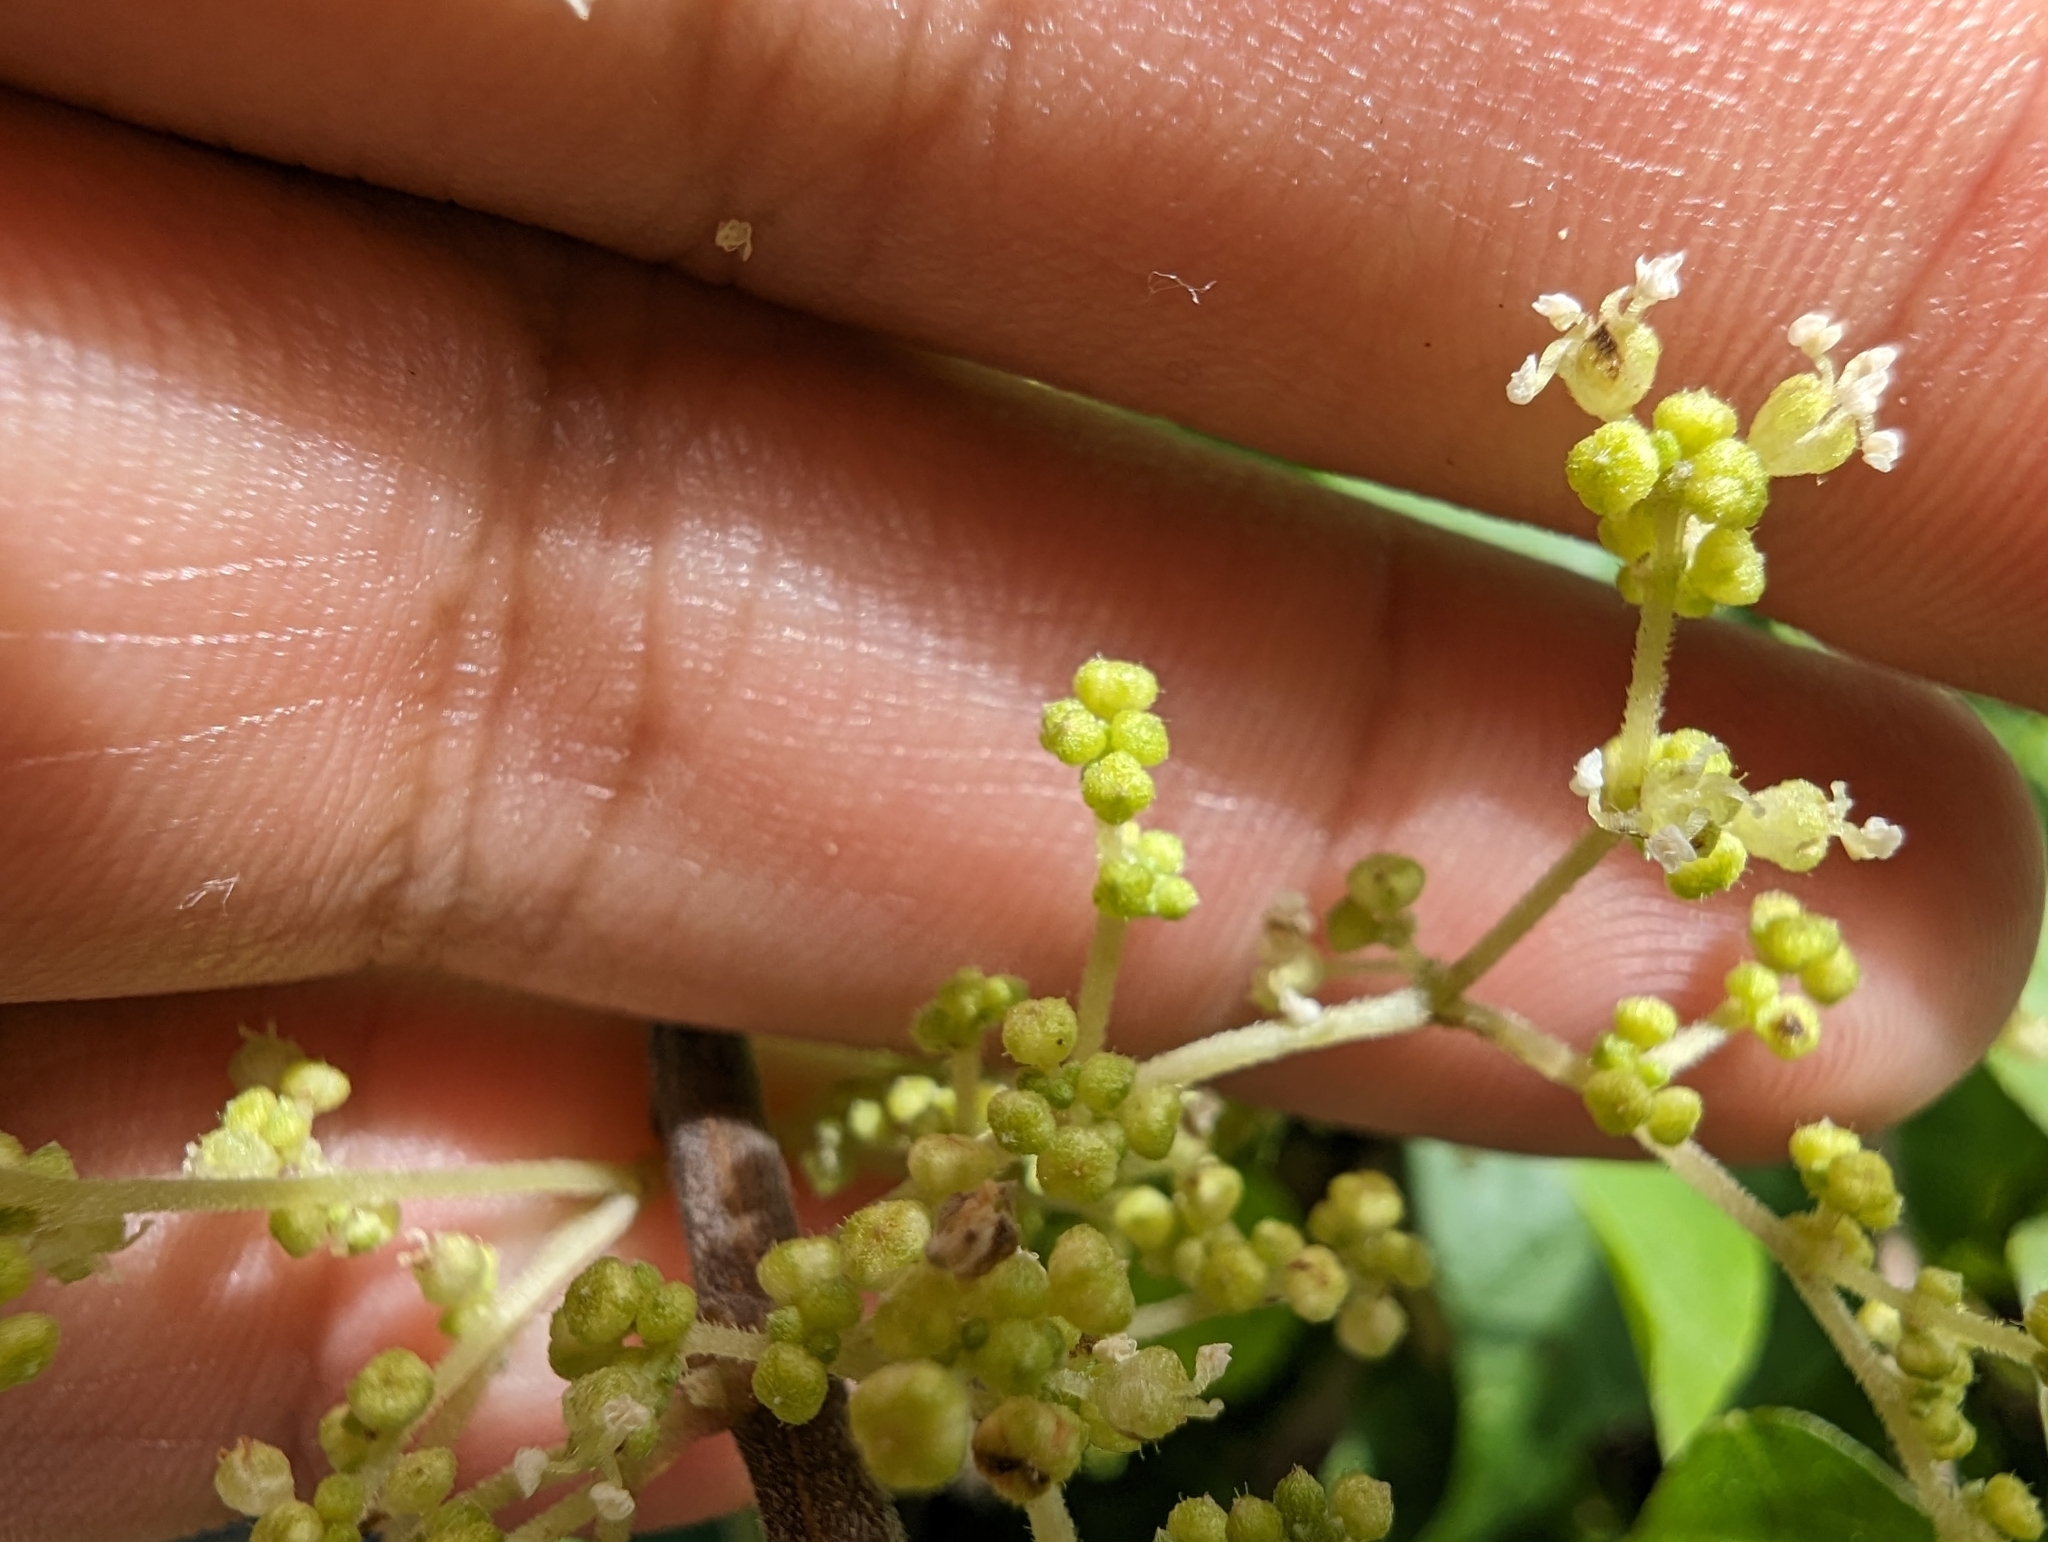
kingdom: Plantae
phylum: Tracheophyta
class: Magnoliopsida
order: Rosales
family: Urticaceae
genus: Boehmeria
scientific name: Boehmeria nivea
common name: Ramie chinese grass
